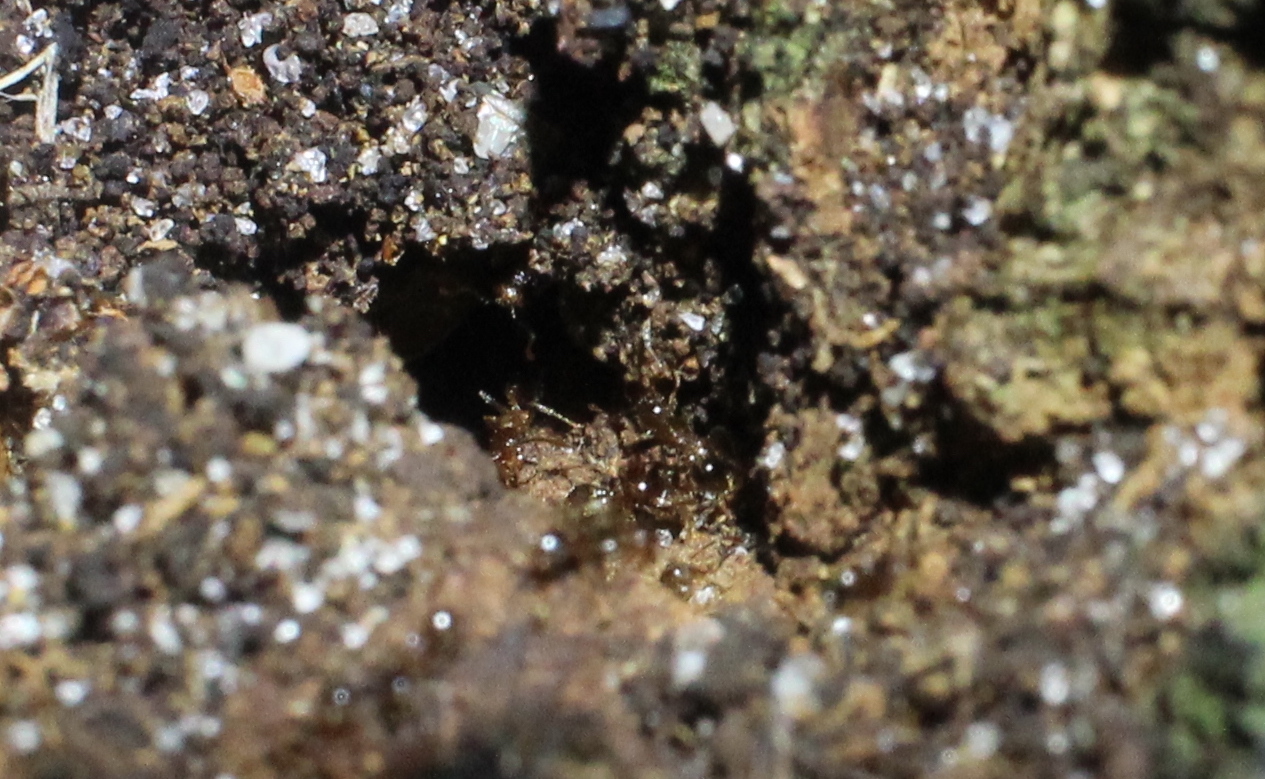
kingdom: Animalia
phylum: Arthropoda
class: Insecta
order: Hymenoptera
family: Formicidae
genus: Solenopsis
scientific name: Solenopsis invicta
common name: Red imported fire ant
